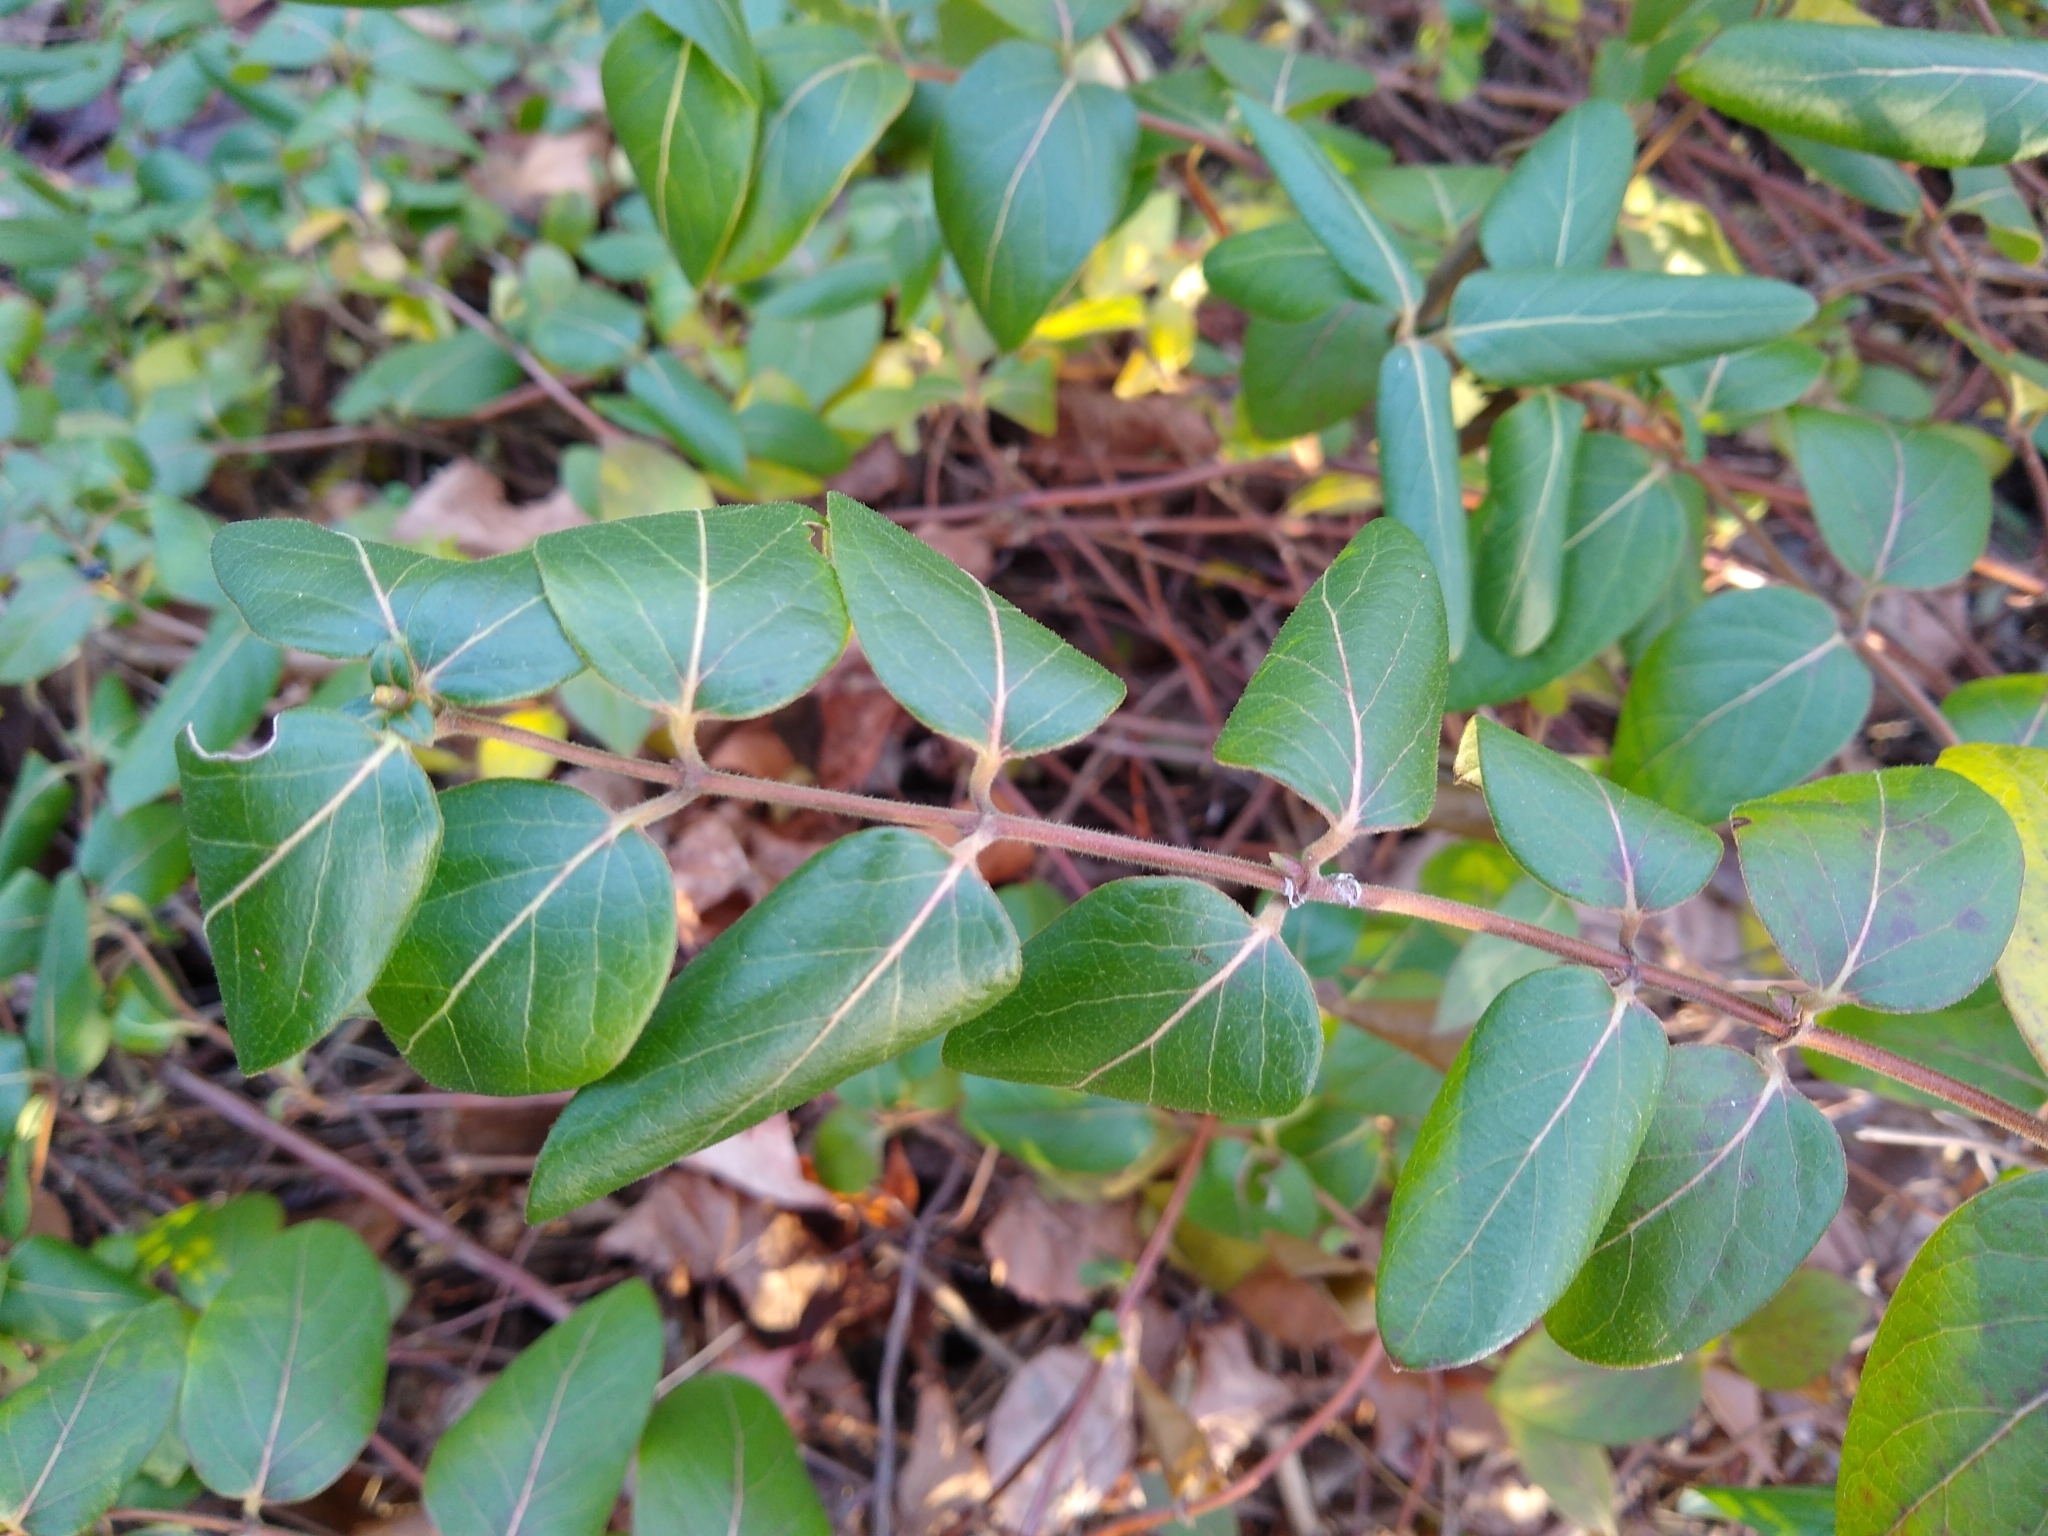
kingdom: Plantae
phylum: Tracheophyta
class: Magnoliopsida
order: Dipsacales
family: Caprifoliaceae
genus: Lonicera
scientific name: Lonicera japonica
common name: Japanese honeysuckle
